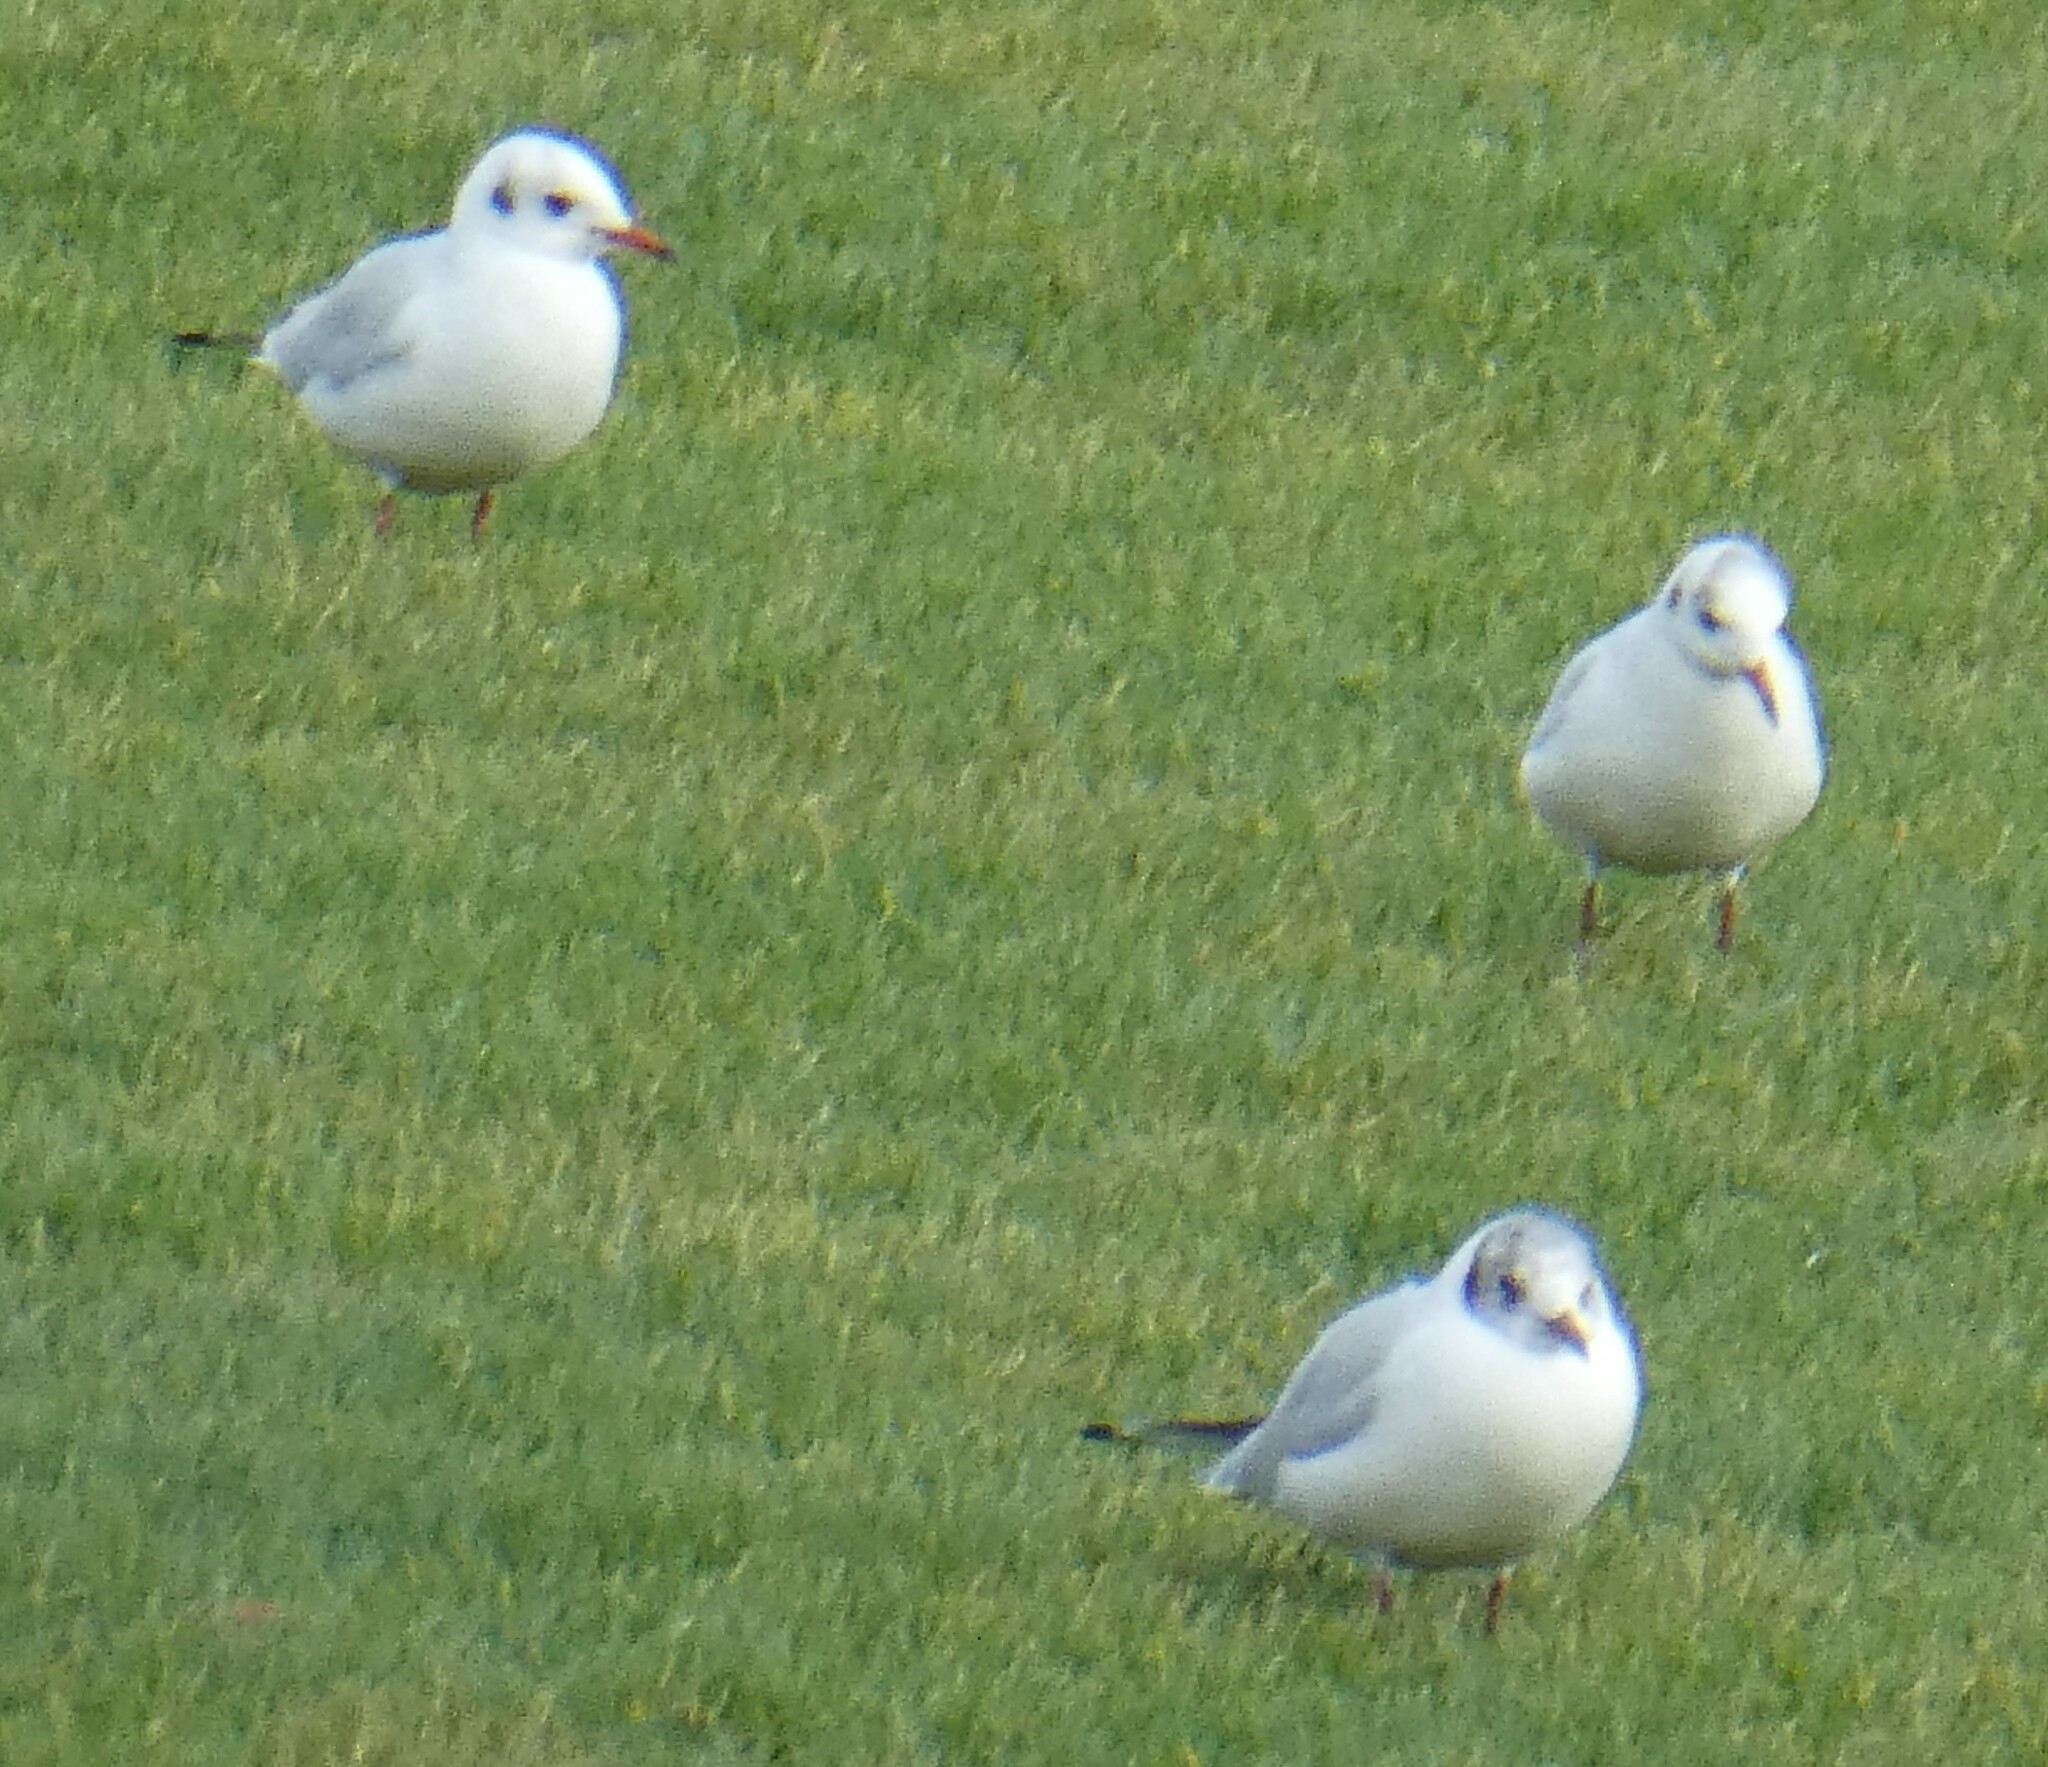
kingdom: Animalia
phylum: Chordata
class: Aves
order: Charadriiformes
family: Laridae
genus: Chroicocephalus
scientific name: Chroicocephalus ridibundus
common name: Black-headed gull
